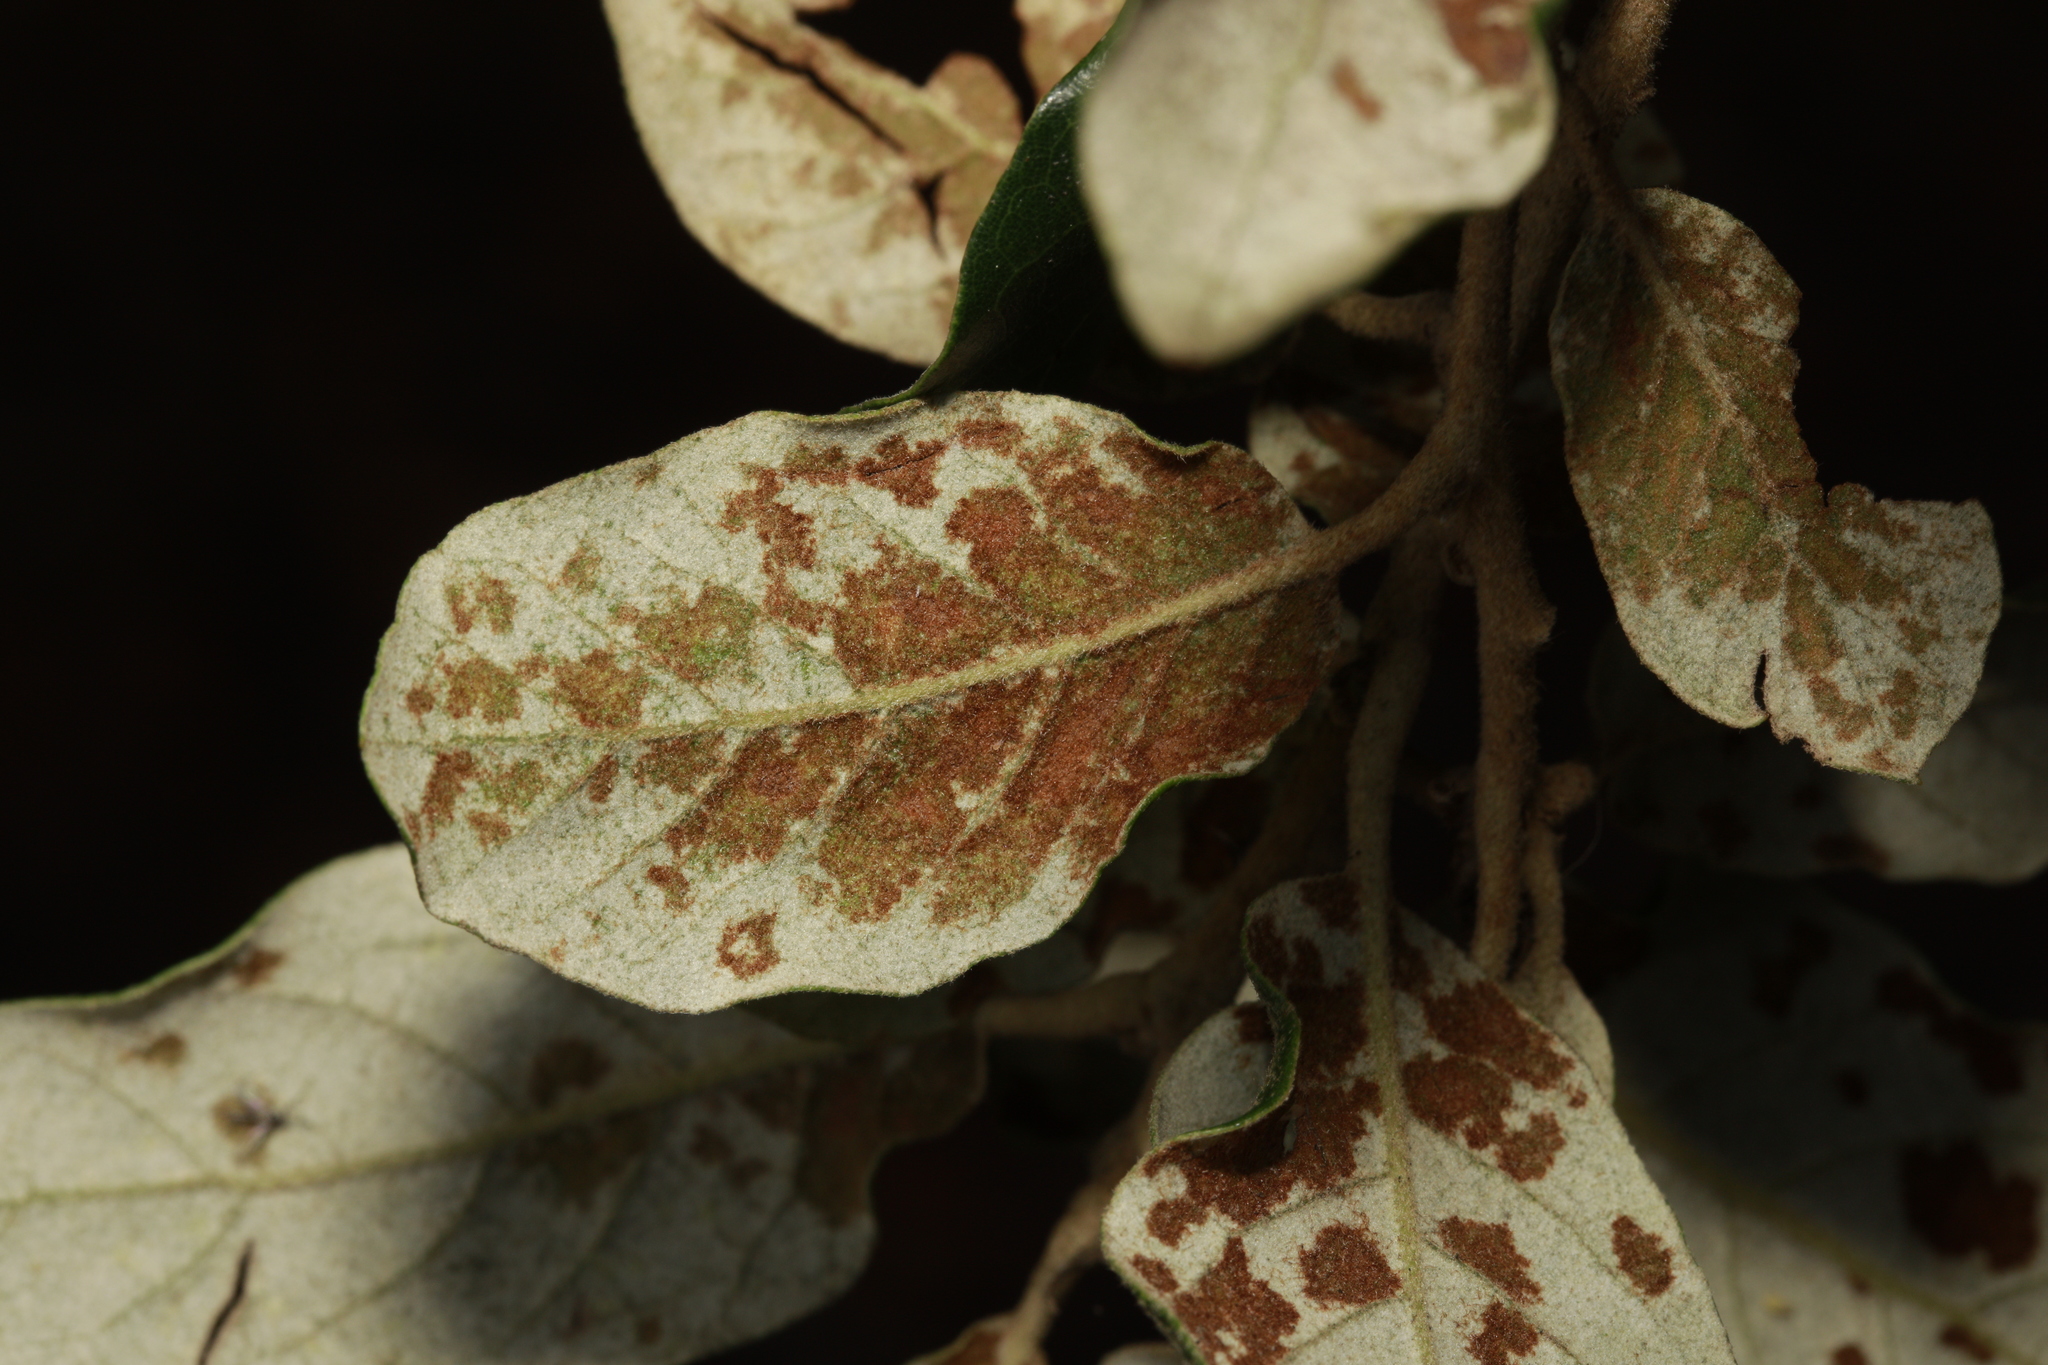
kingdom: Animalia
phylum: Arthropoda
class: Arachnida
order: Trombidiformes
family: Eriophyidae
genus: Aceria
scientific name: Aceria ilicis
